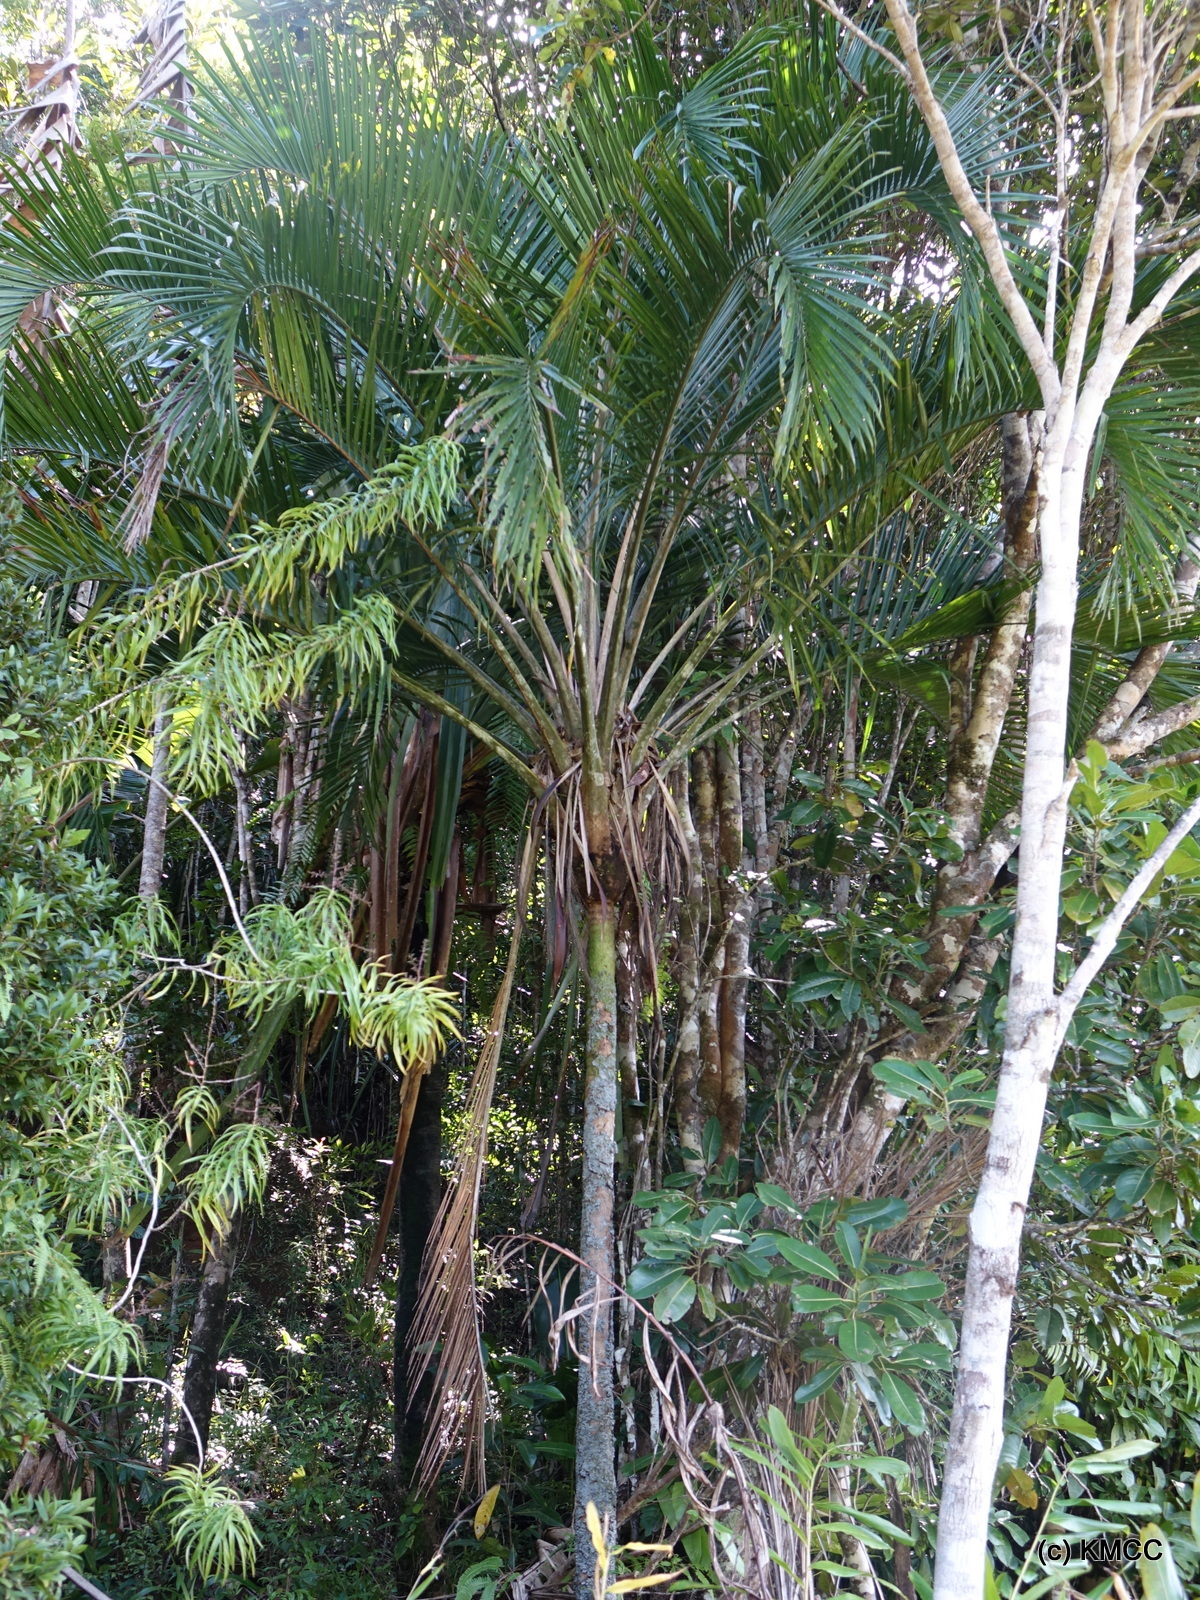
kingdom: Plantae
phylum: Tracheophyta
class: Liliopsida
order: Arecales
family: Arecaceae
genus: Ravenea
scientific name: Ravenea sambiranensis
